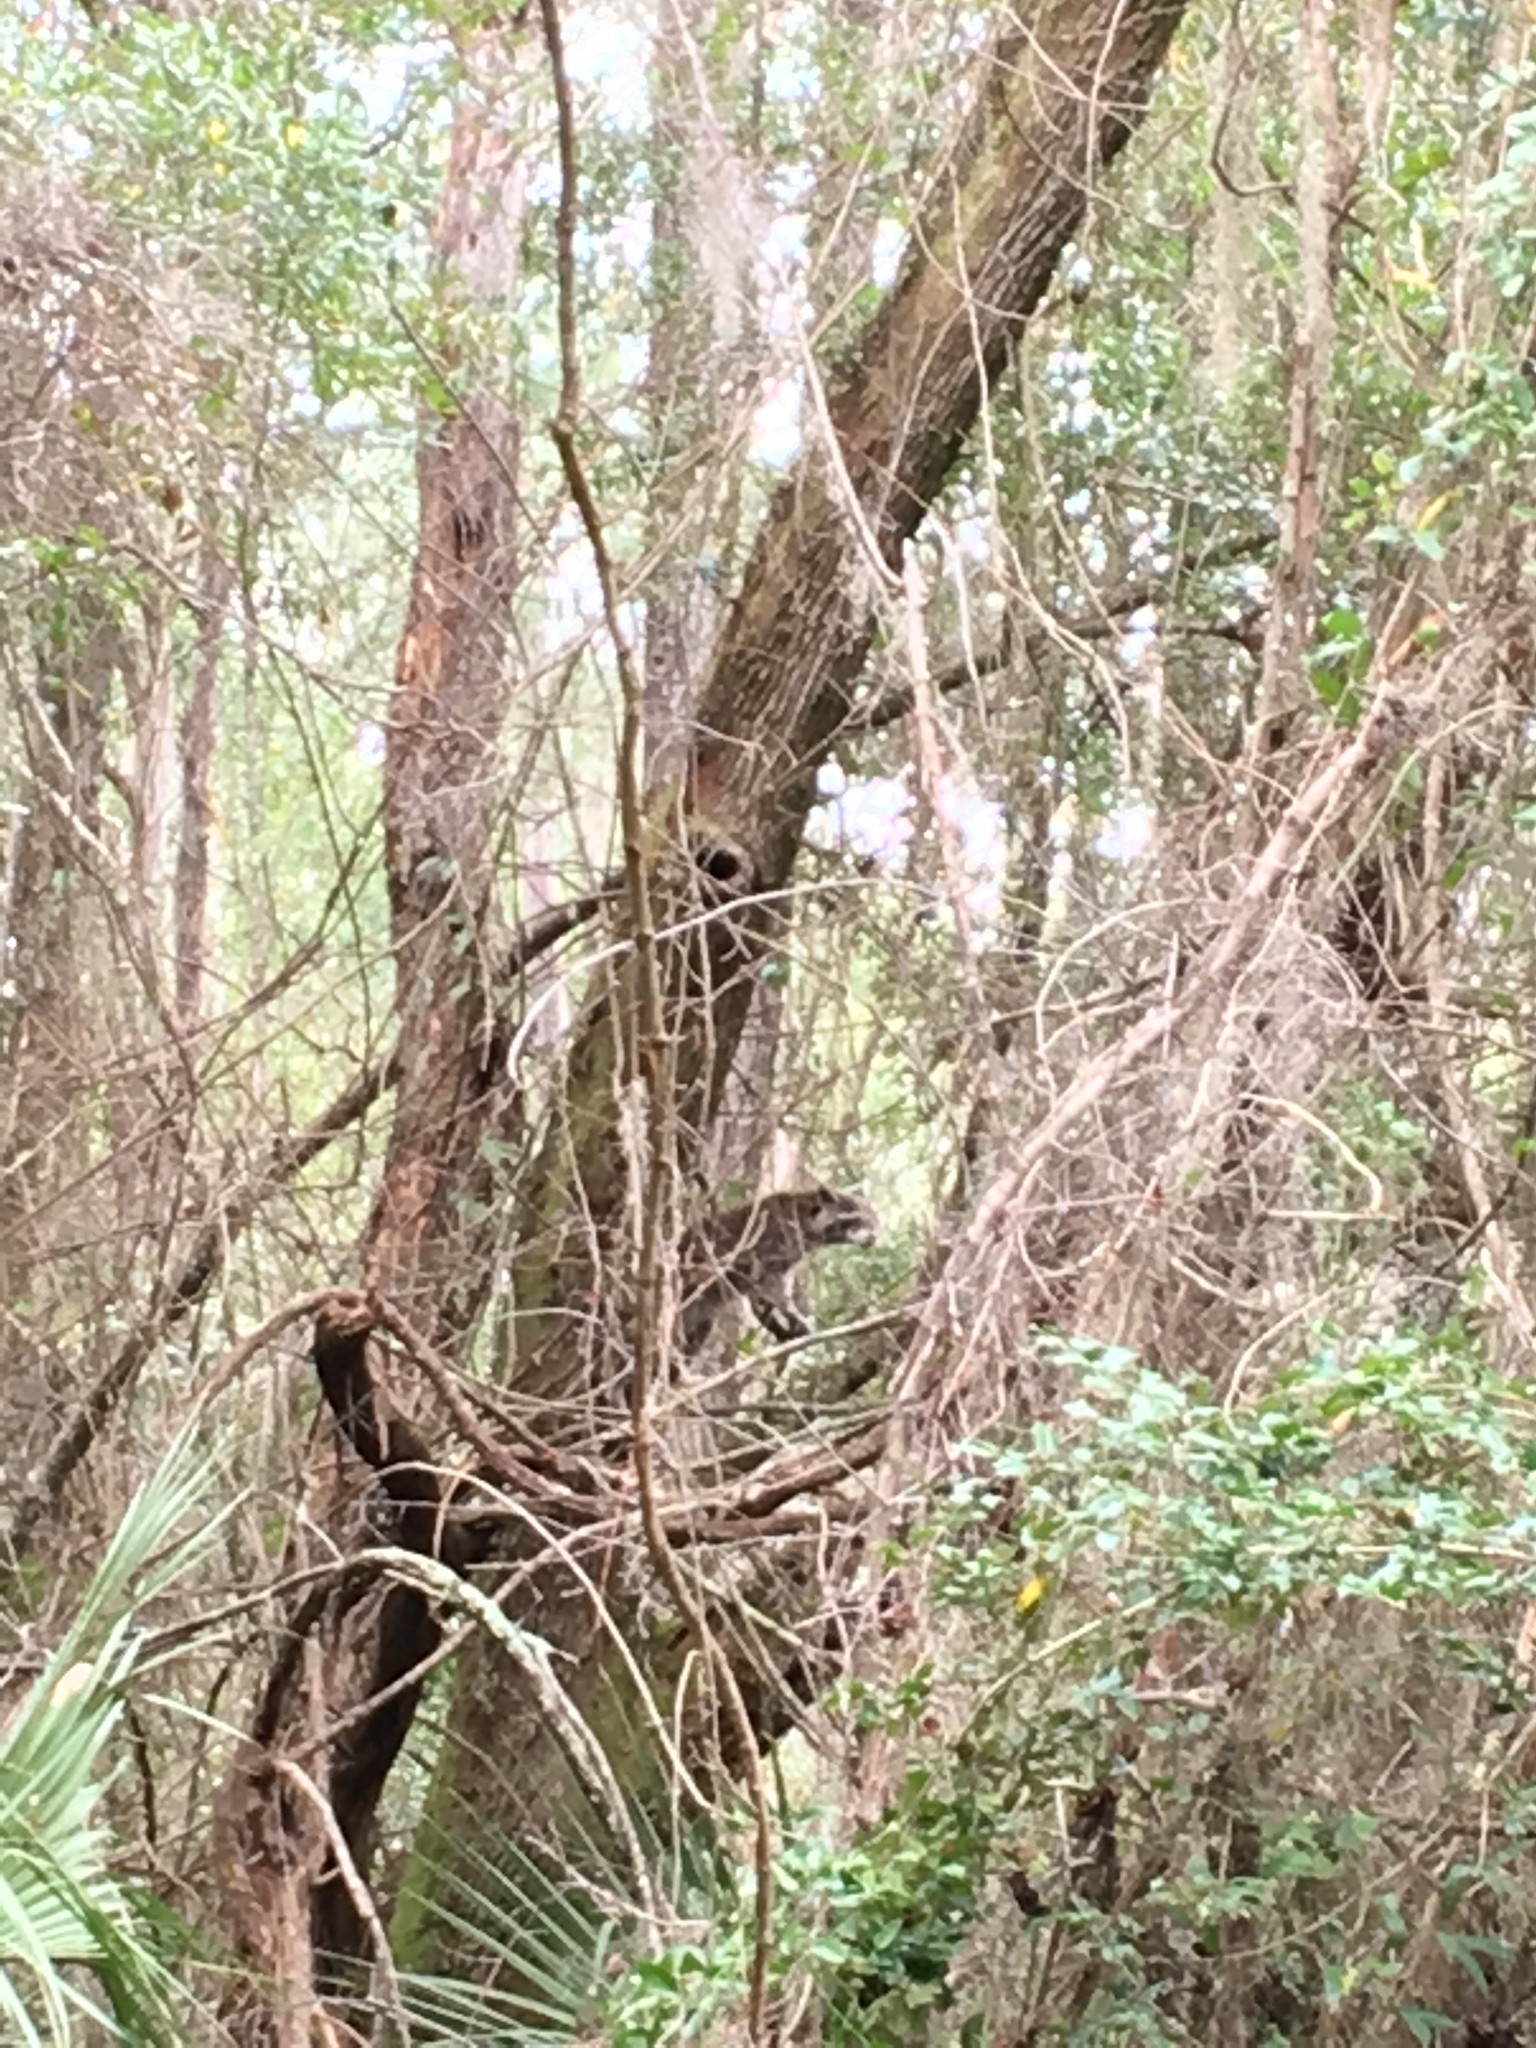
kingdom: Animalia
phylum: Chordata
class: Mammalia
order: Carnivora
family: Procyonidae
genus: Procyon
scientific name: Procyon lotor
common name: Raccoon
